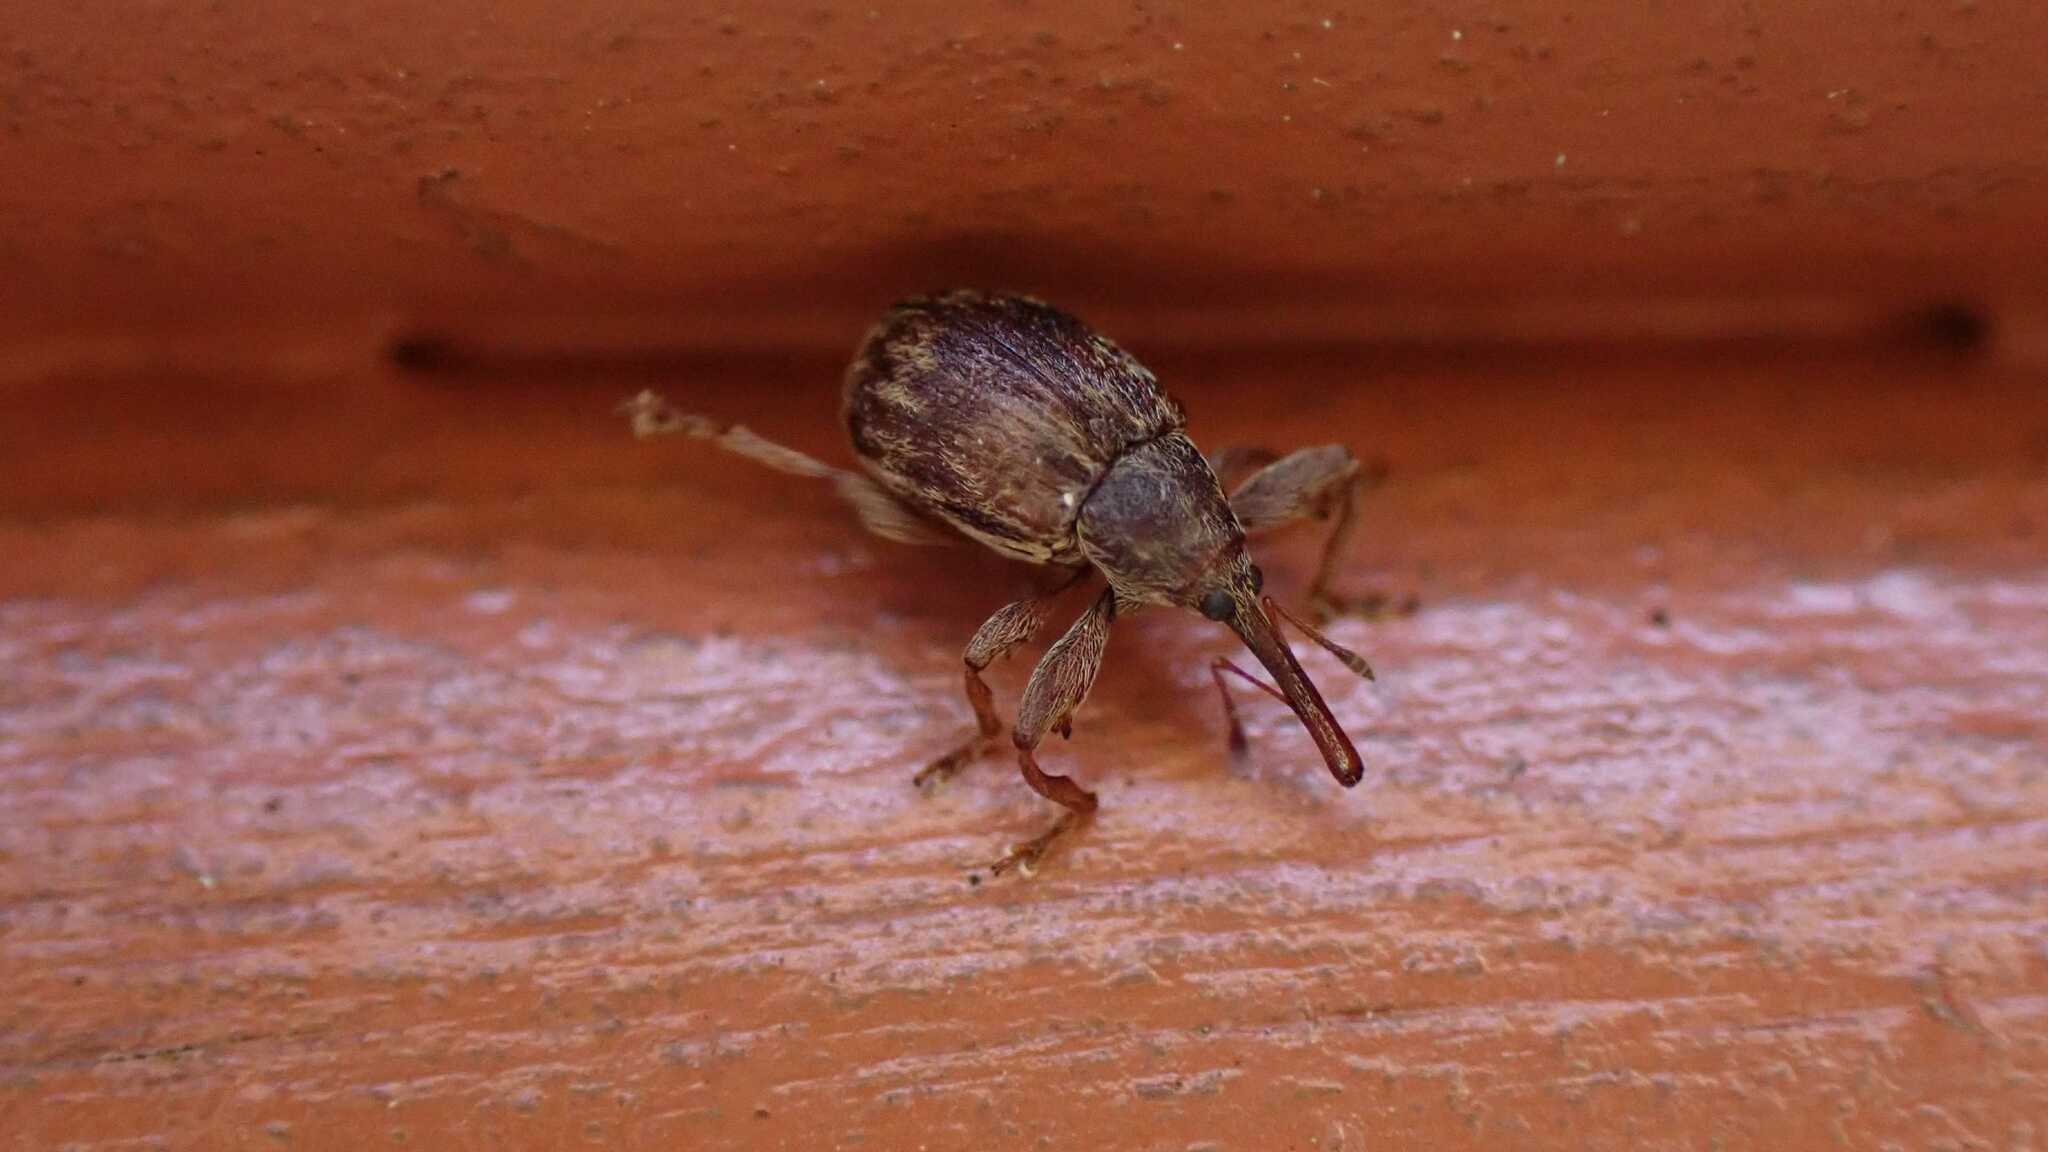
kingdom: Animalia
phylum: Arthropoda
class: Insecta
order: Coleoptera
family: Curculionidae
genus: Anthonomus
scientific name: Anthonomus rectirostris
